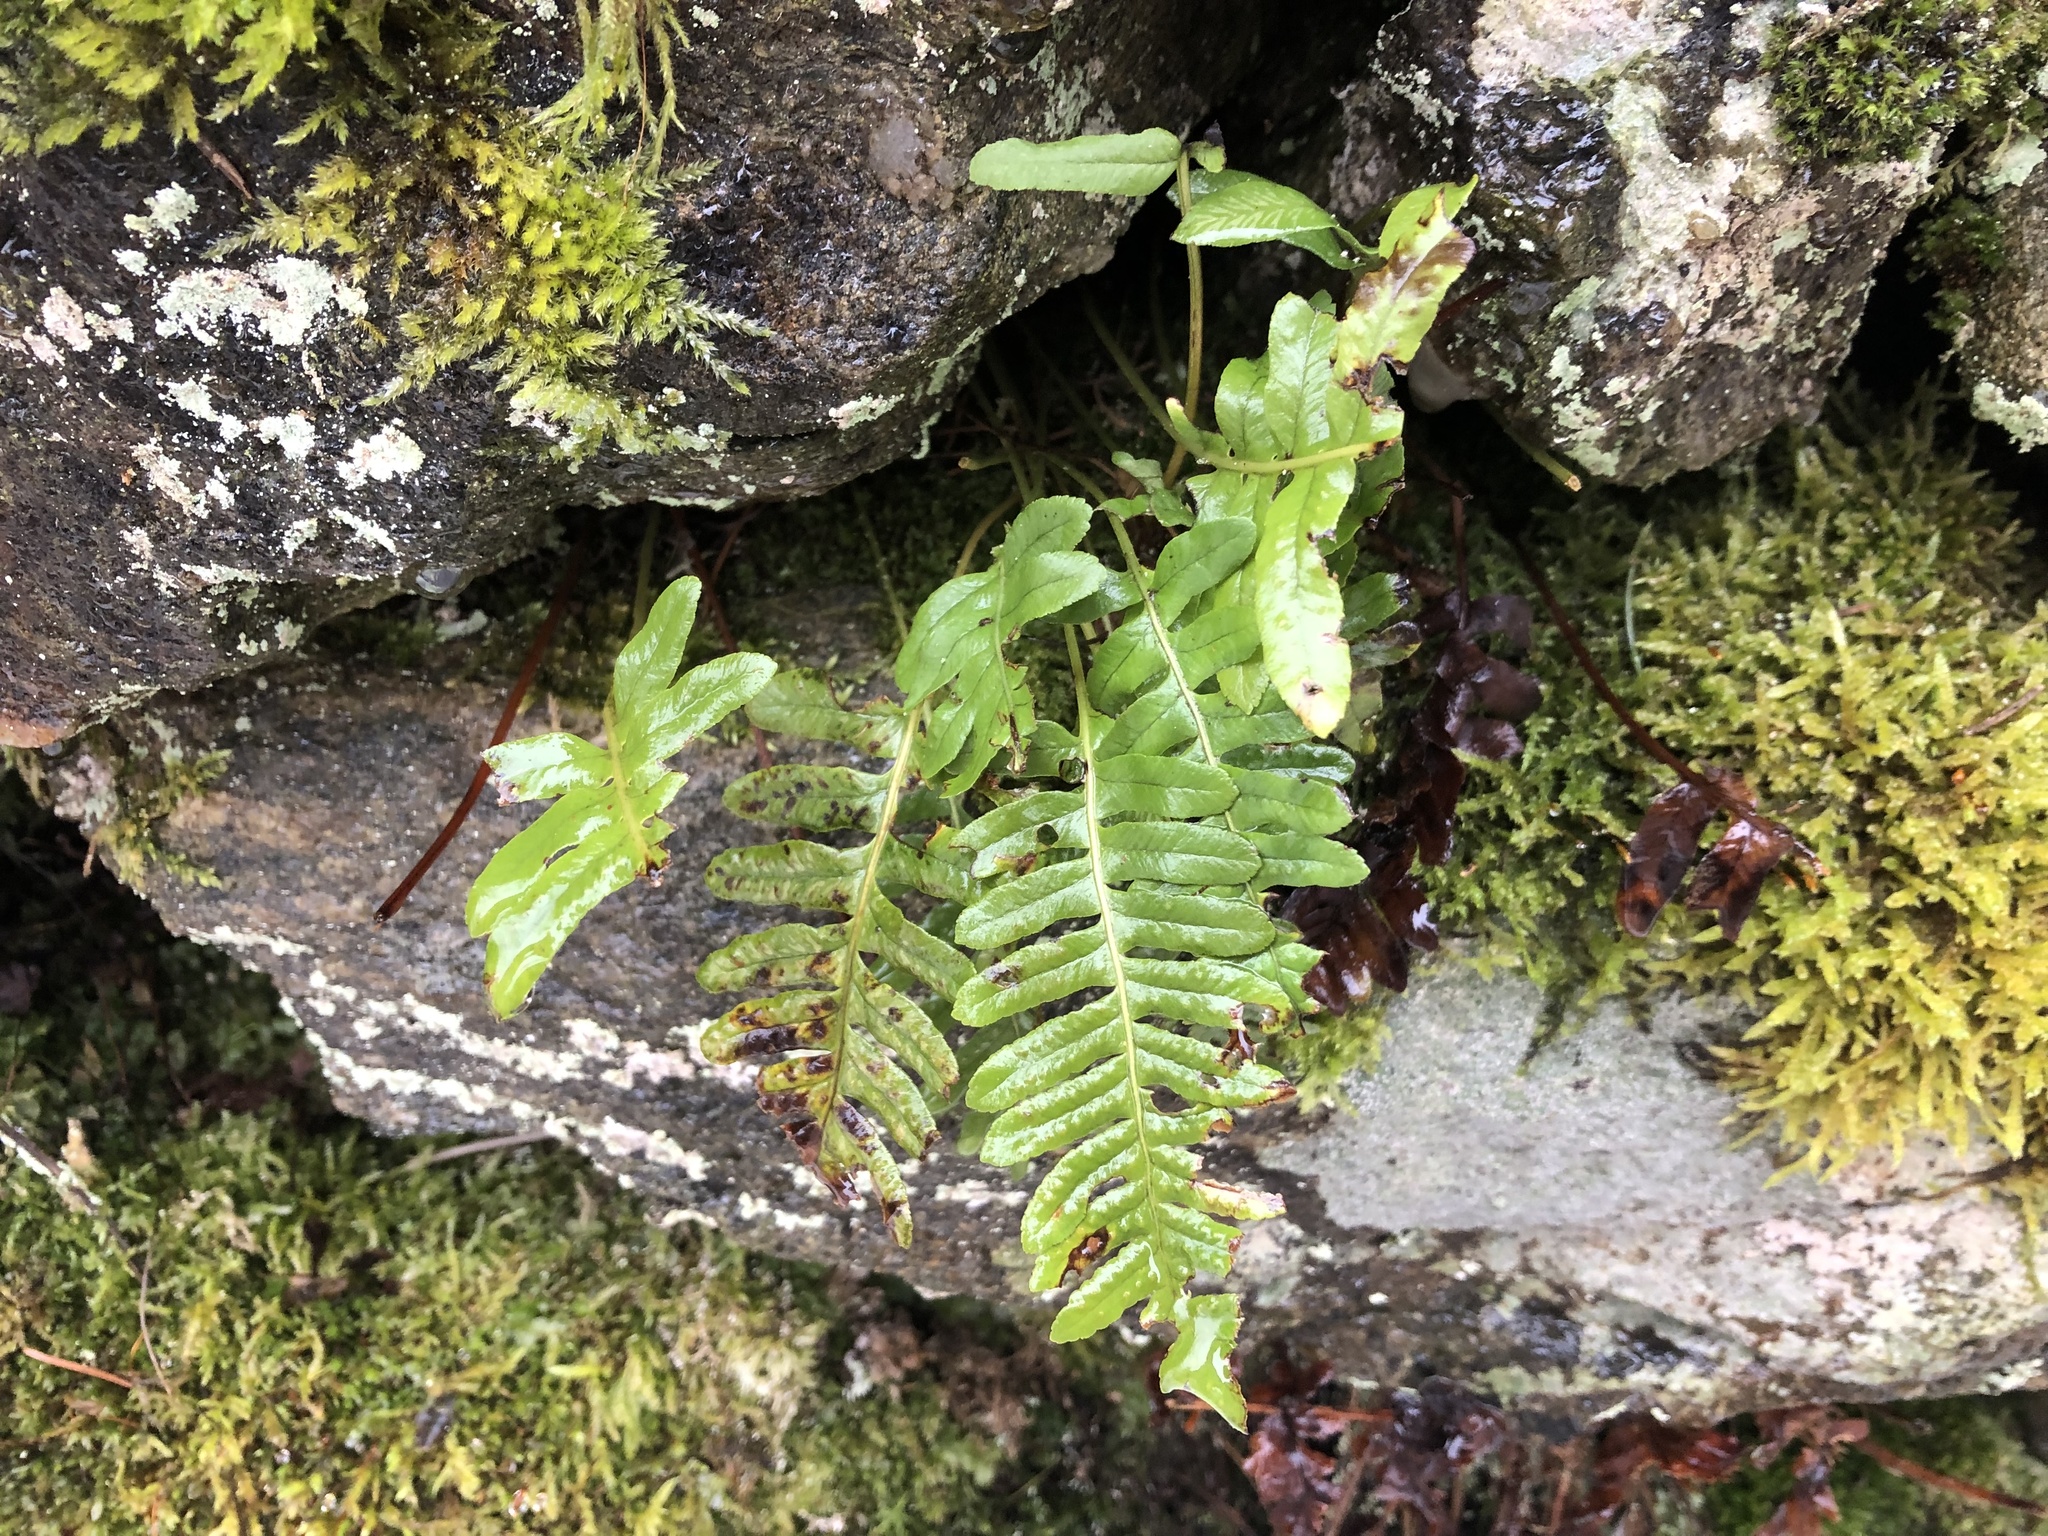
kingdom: Plantae
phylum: Tracheophyta
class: Polypodiopsida
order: Polypodiales
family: Polypodiaceae
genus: Polypodium
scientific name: Polypodium vulgare
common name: Common polypody
